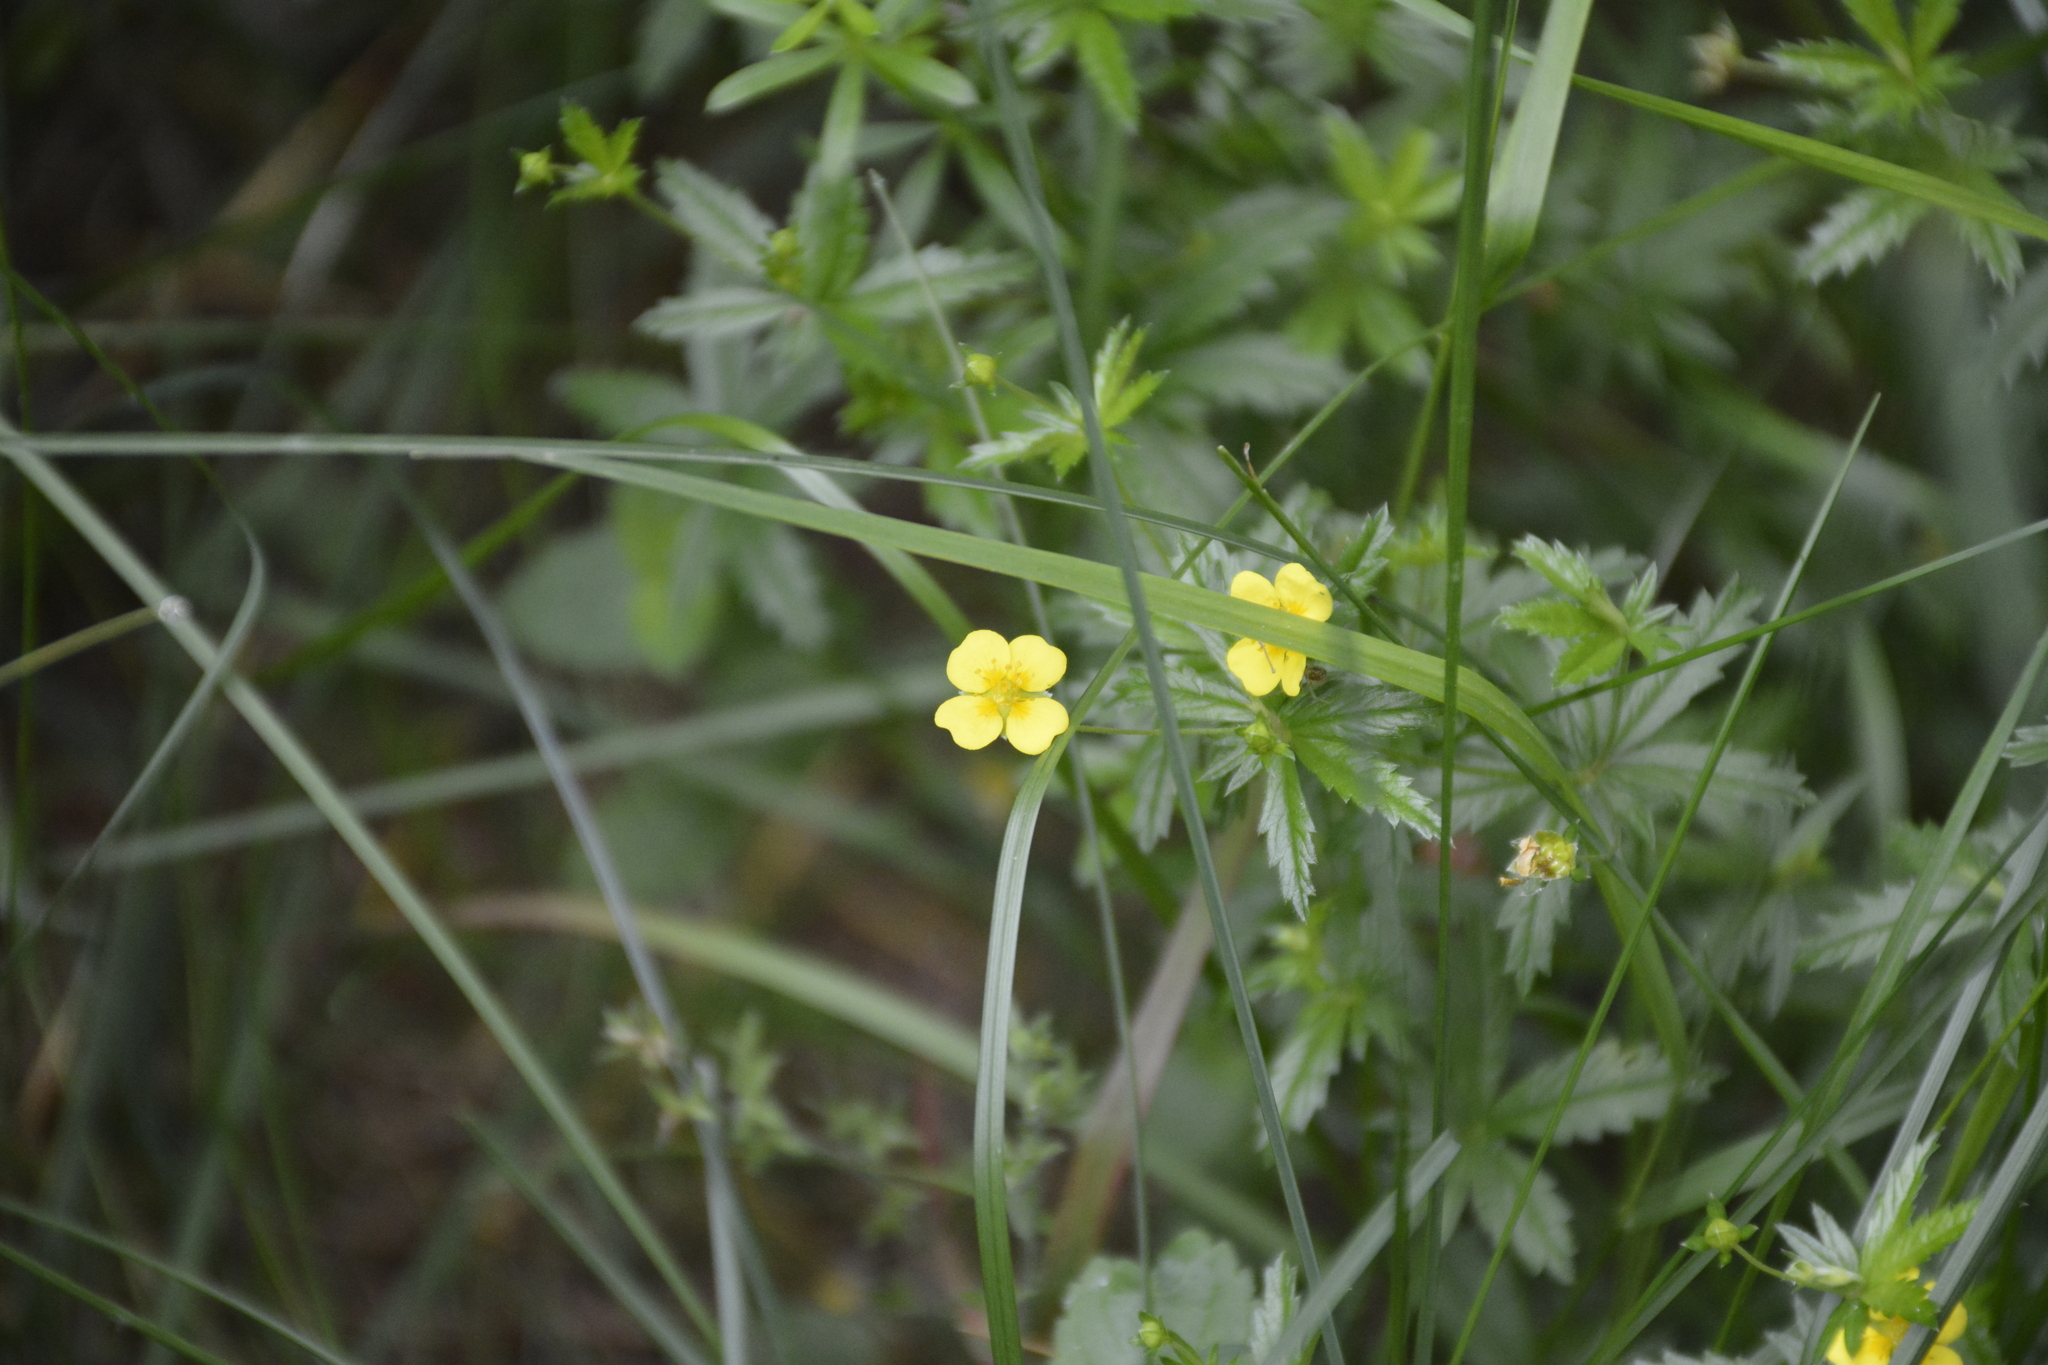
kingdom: Plantae
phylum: Tracheophyta
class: Magnoliopsida
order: Rosales
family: Rosaceae
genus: Potentilla
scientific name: Potentilla erecta
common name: Tormentil
